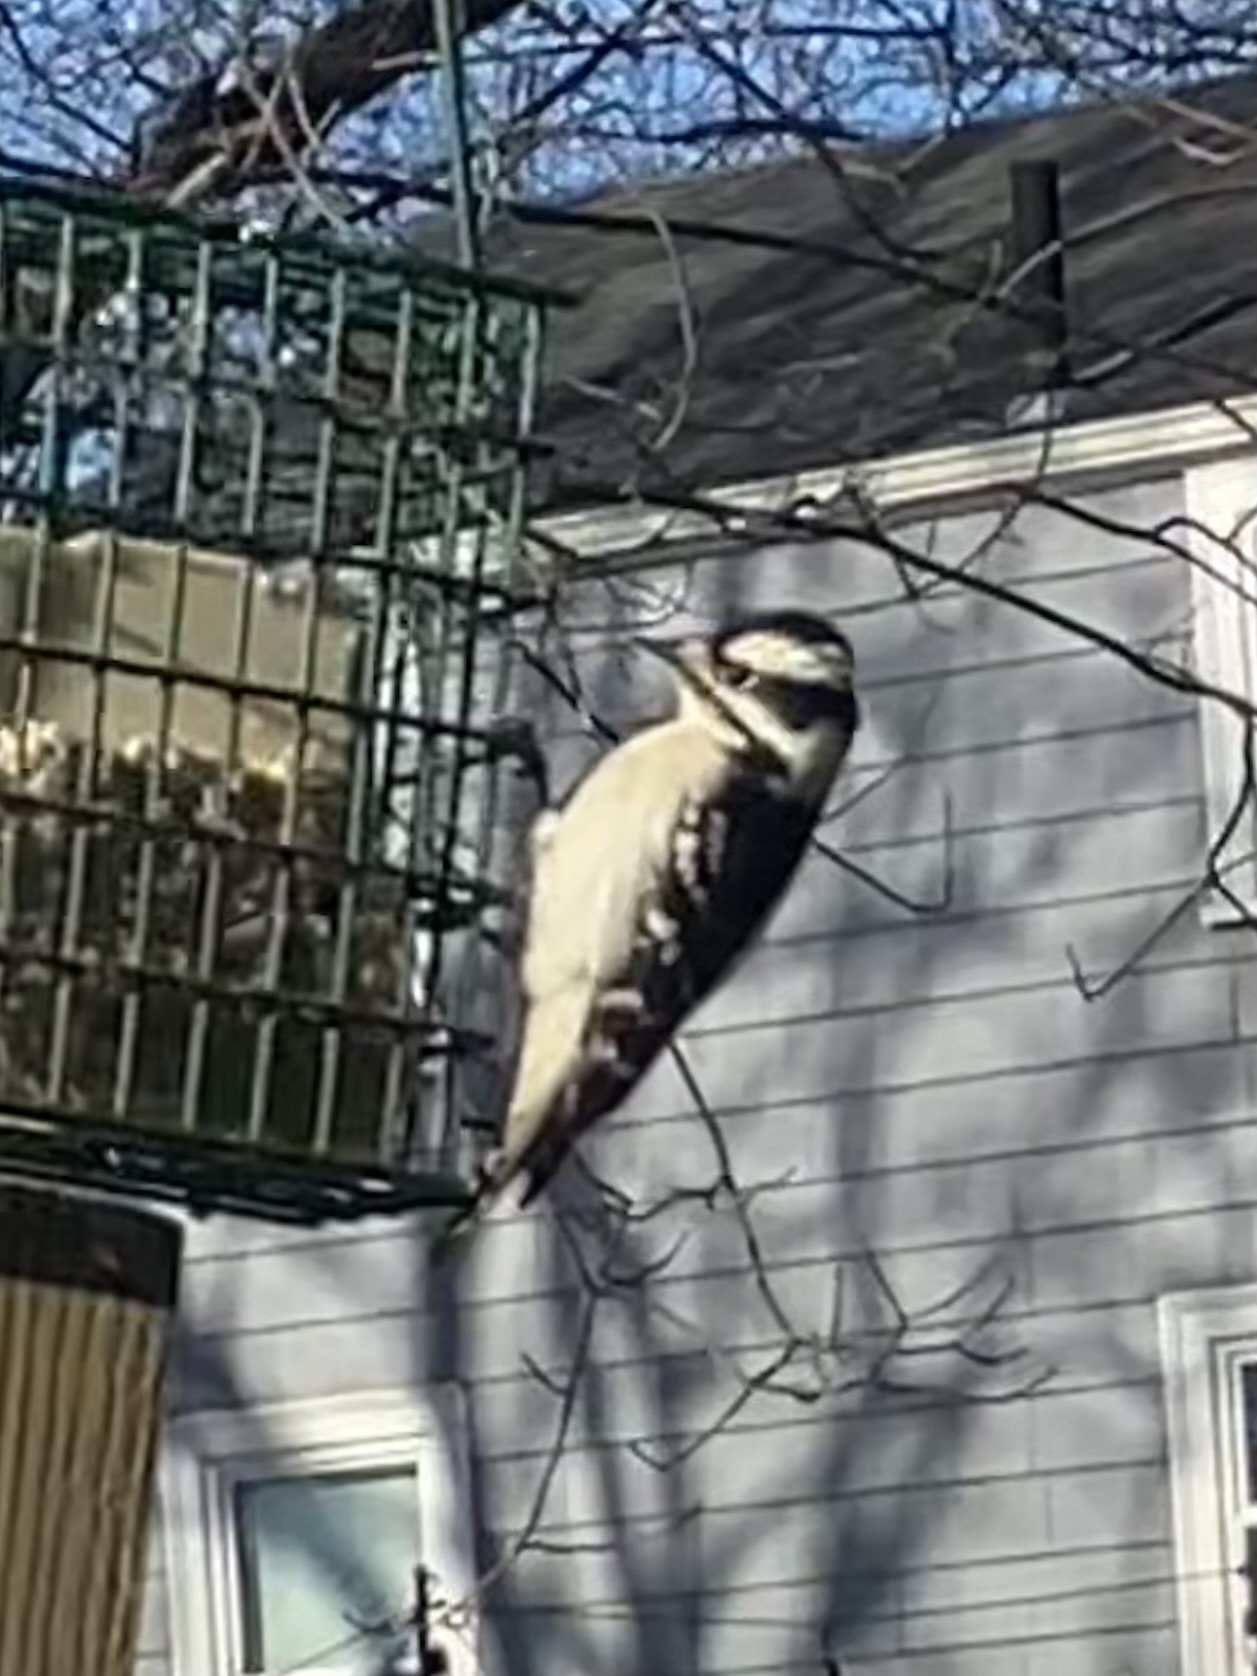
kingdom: Animalia
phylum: Chordata
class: Aves
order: Piciformes
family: Picidae
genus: Dryobates
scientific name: Dryobates pubescens
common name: Downy woodpecker
